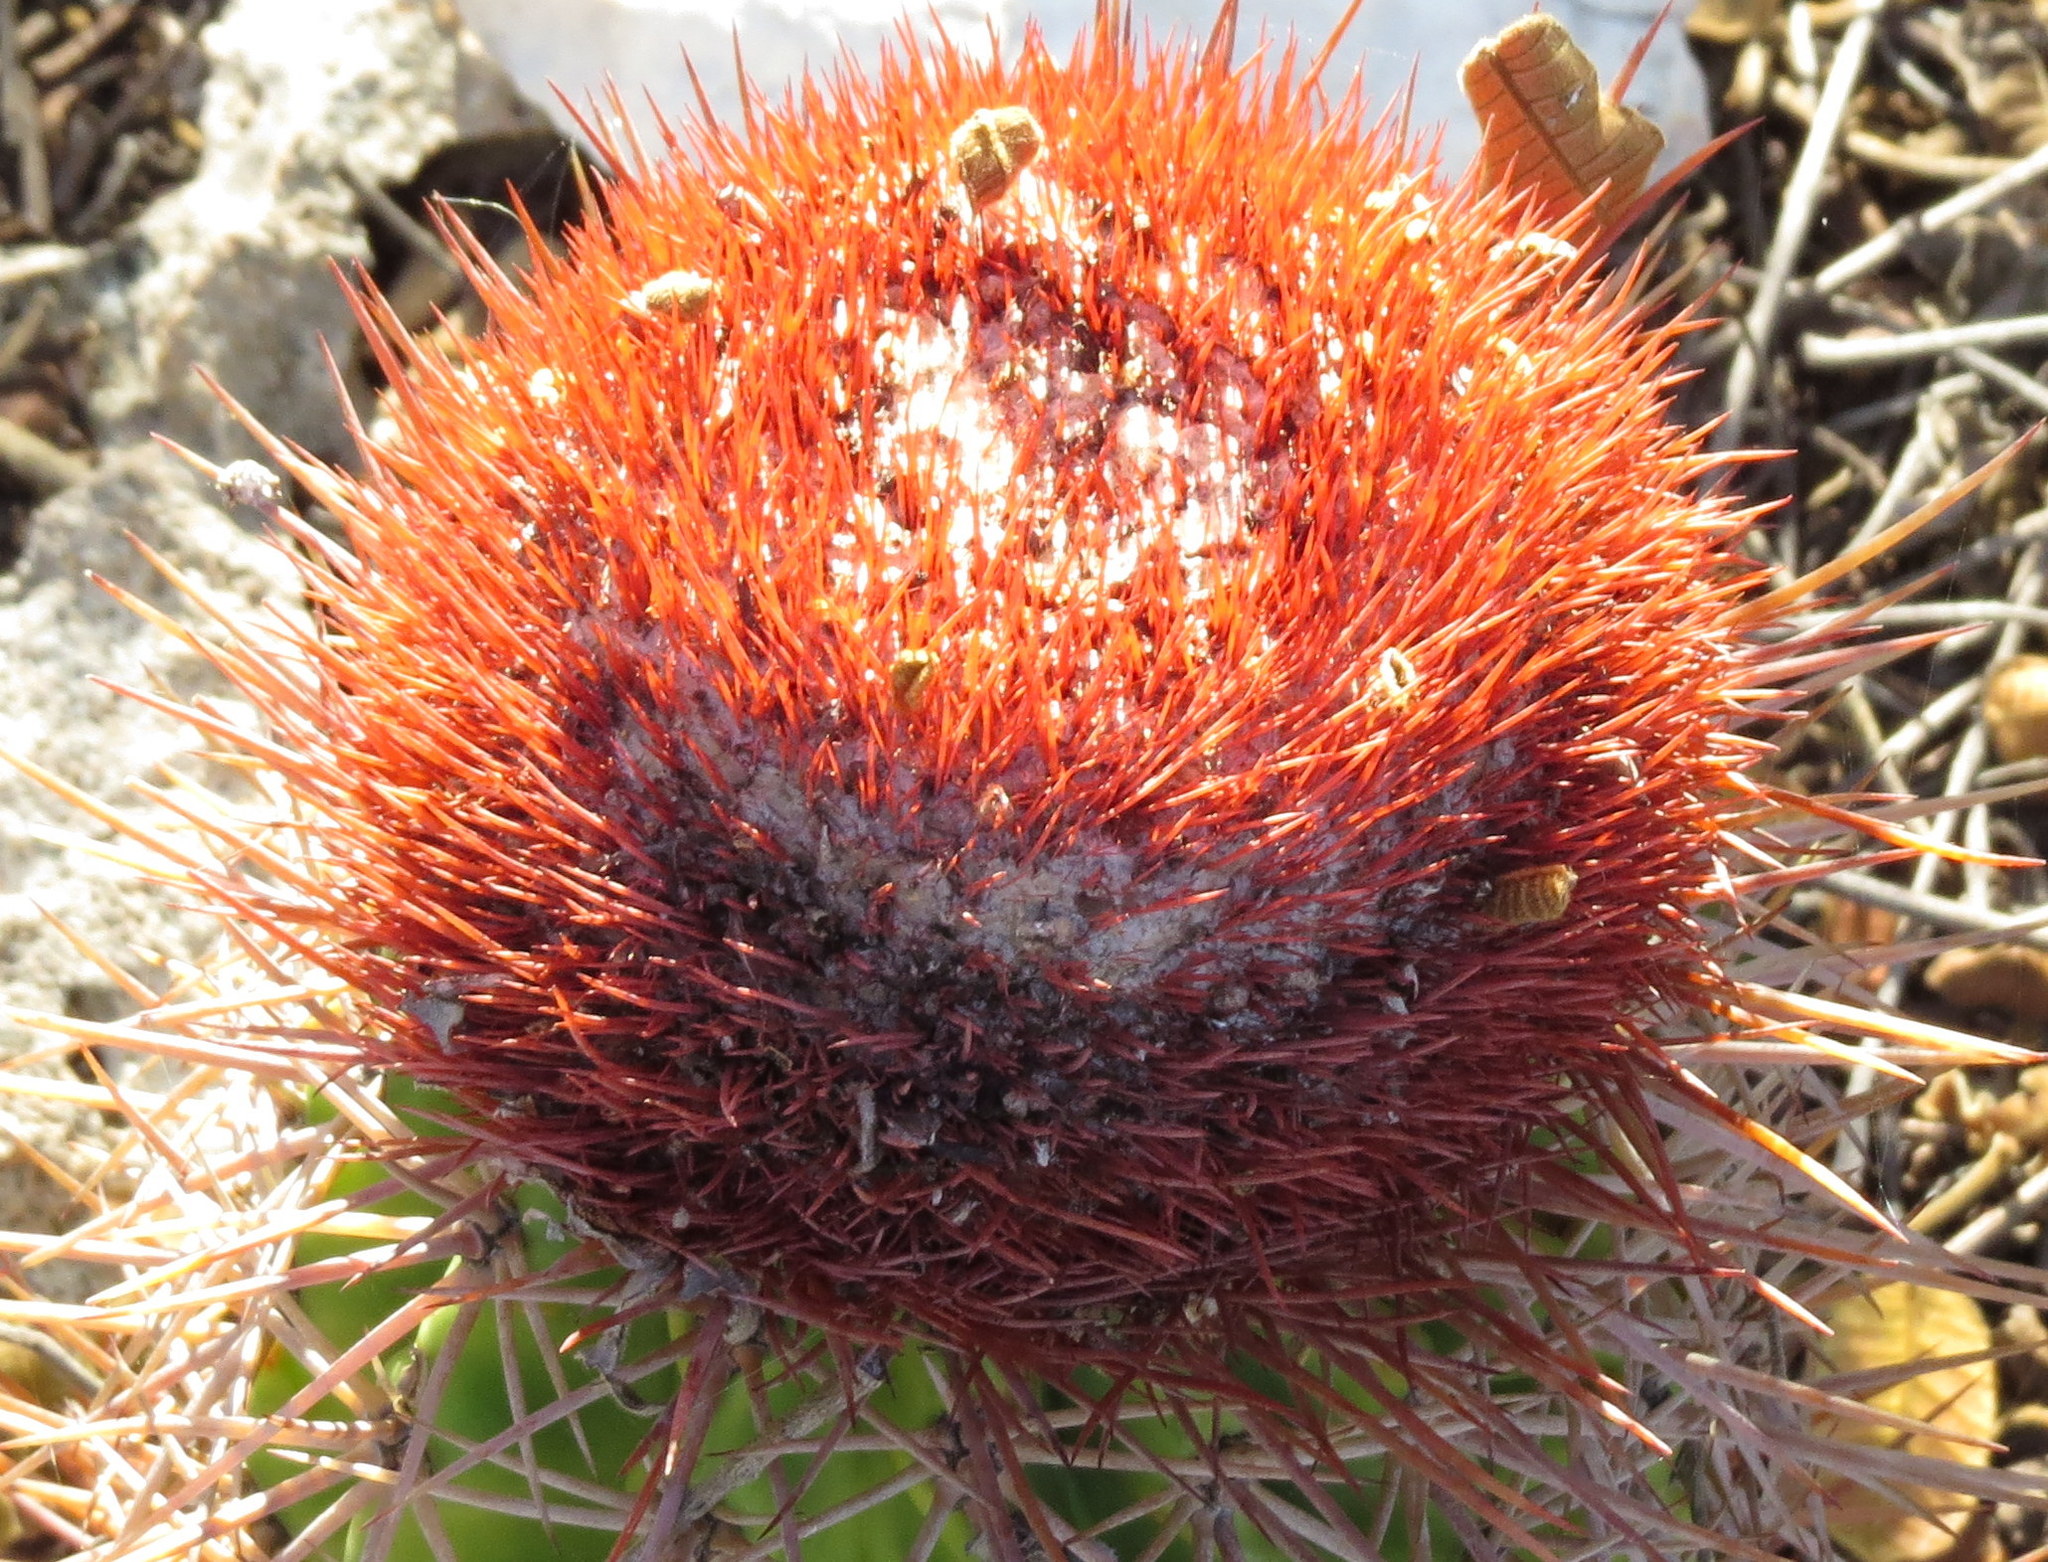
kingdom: Plantae
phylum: Tracheophyta
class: Magnoliopsida
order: Caryophyllales
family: Cactaceae
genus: Melocactus
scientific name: Melocactus caroli-linnaei
